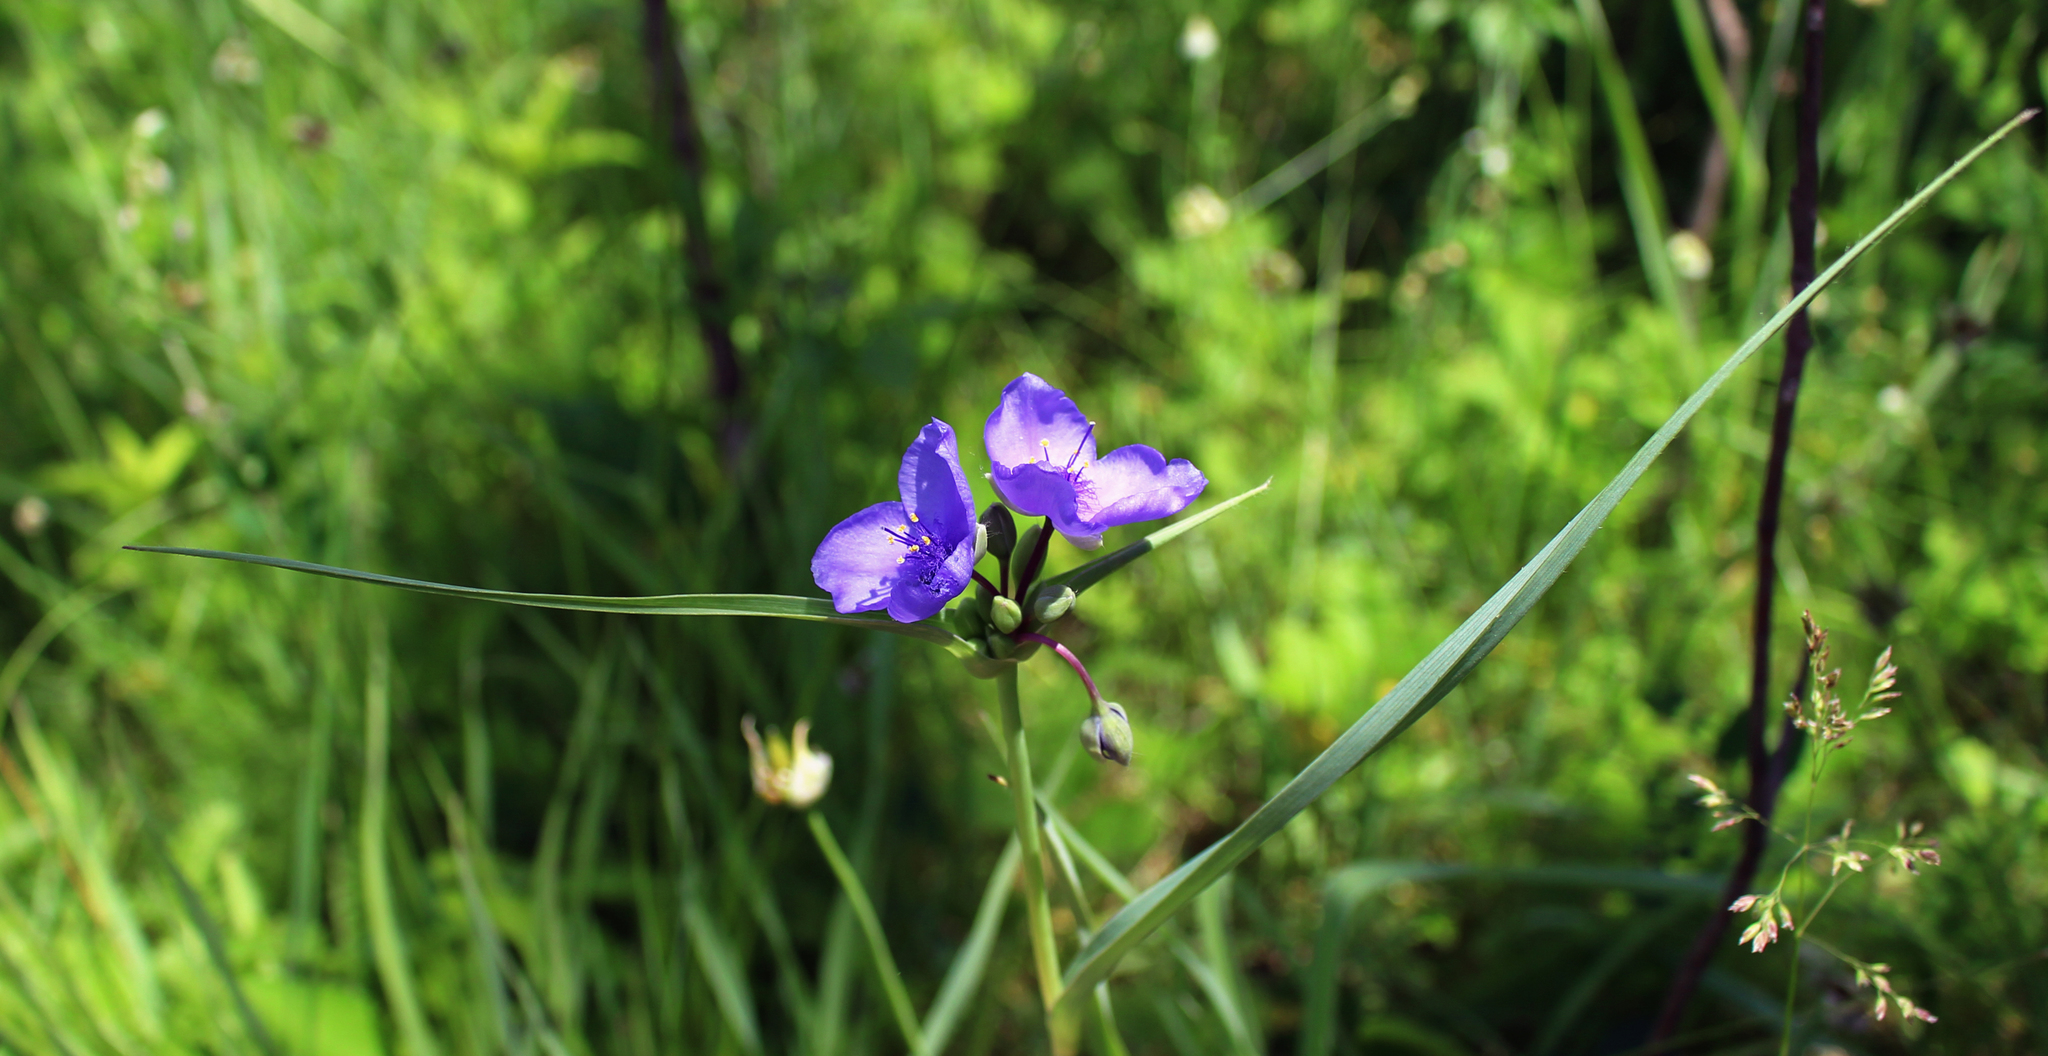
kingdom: Plantae
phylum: Tracheophyta
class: Liliopsida
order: Commelinales
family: Commelinaceae
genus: Tradescantia
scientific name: Tradescantia ohiensis
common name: Ohio spiderwort
